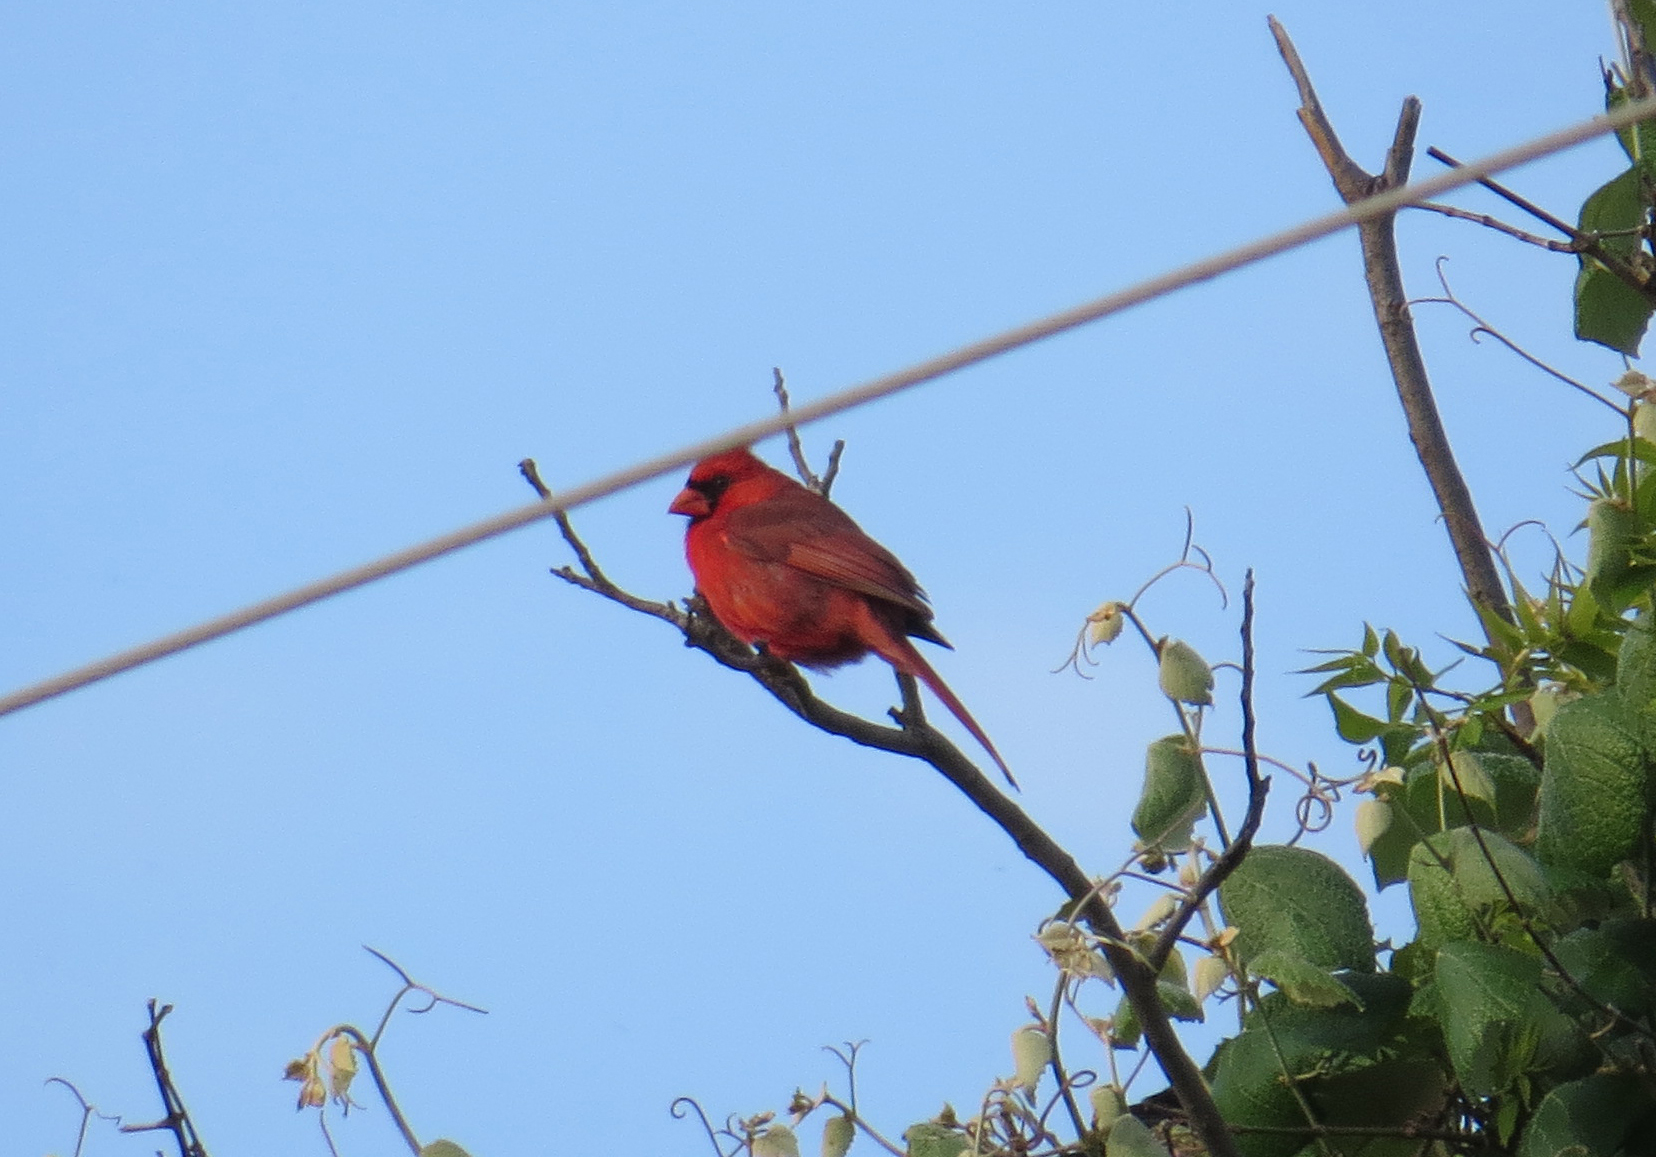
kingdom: Animalia
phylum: Chordata
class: Aves
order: Passeriformes
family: Cardinalidae
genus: Cardinalis
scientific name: Cardinalis cardinalis
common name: Northern cardinal
